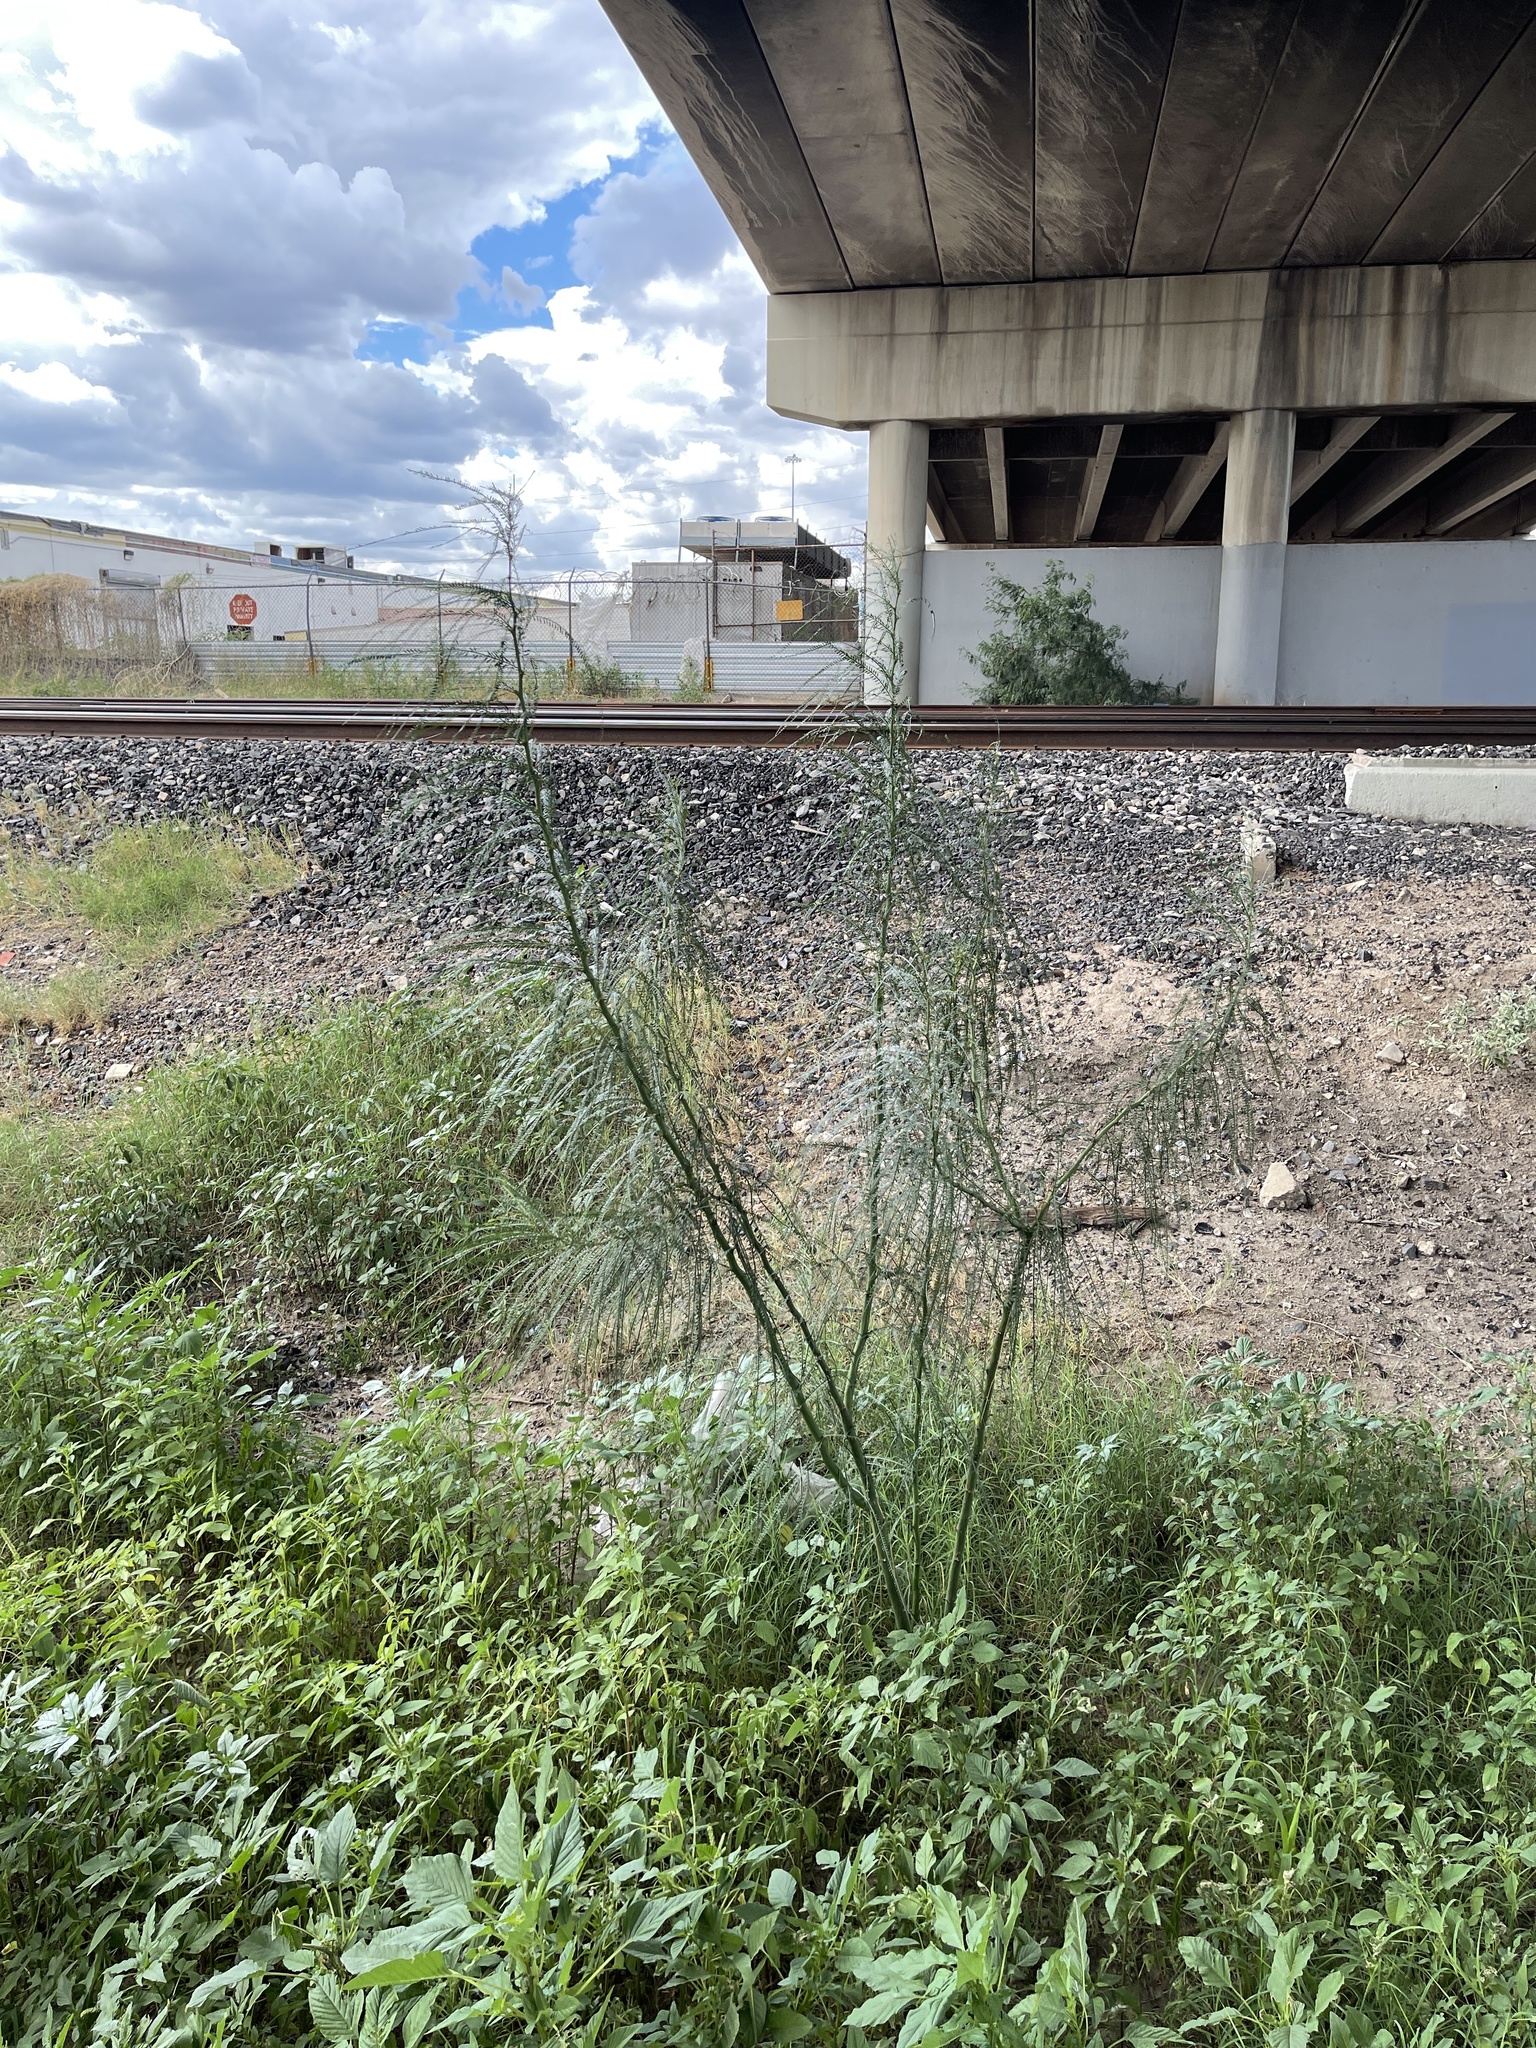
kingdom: Plantae
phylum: Tracheophyta
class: Magnoliopsida
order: Fabales
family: Fabaceae
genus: Parkinsonia
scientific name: Parkinsonia aculeata
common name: Jerusalem thorn
